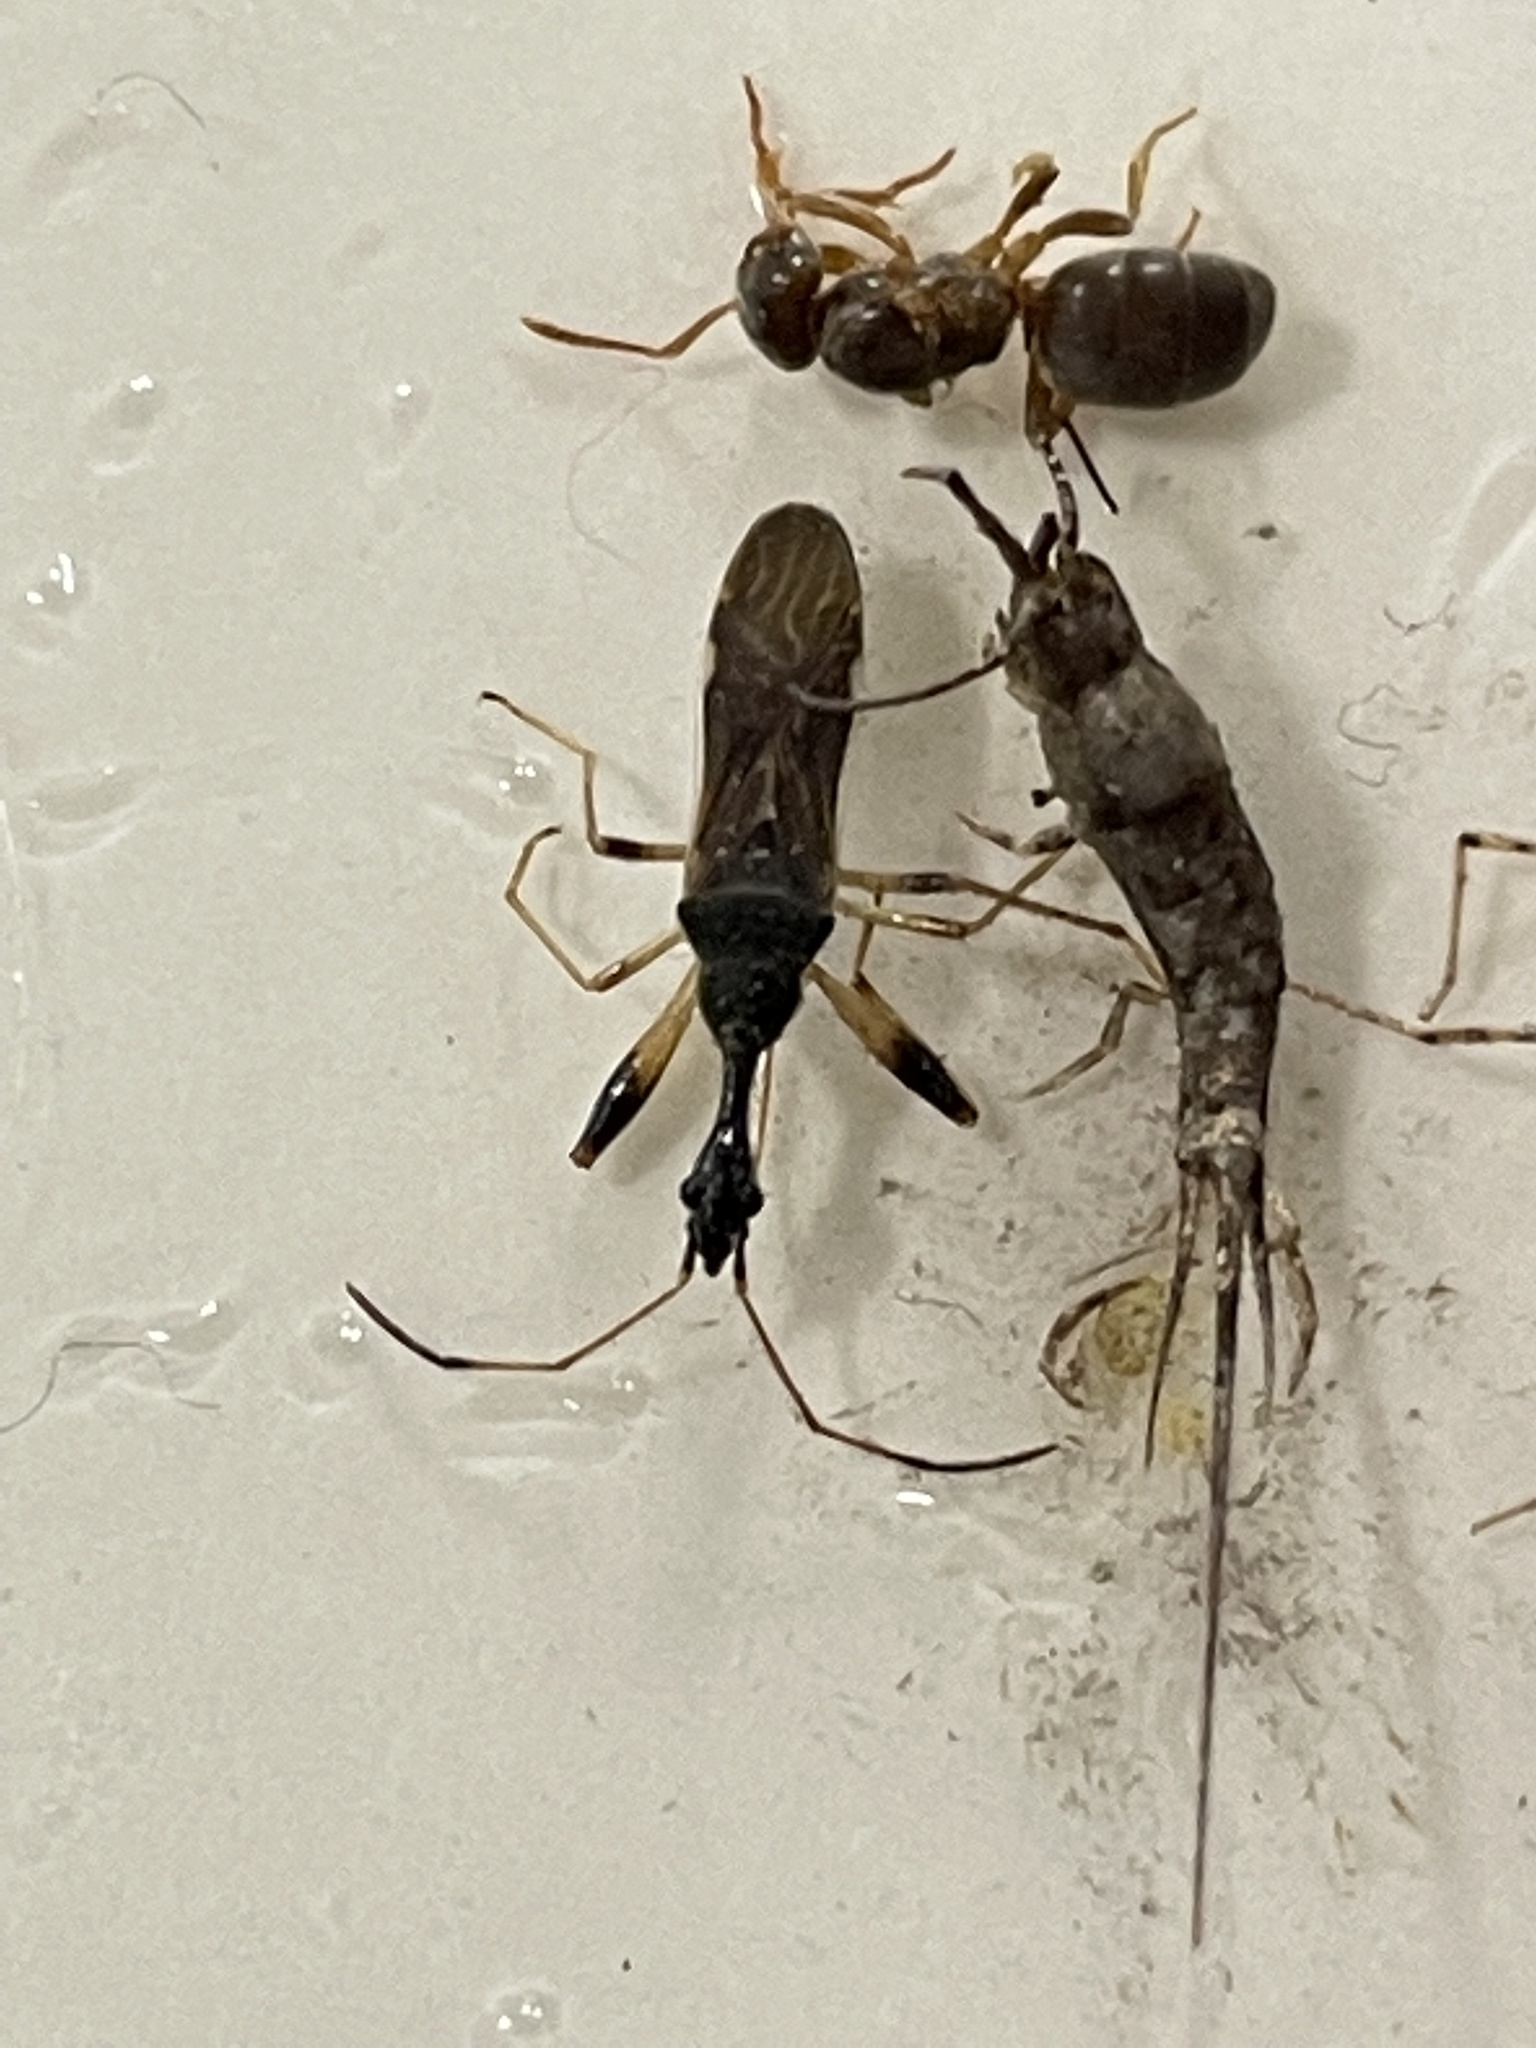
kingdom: Animalia
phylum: Arthropoda
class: Insecta
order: Hemiptera
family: Rhyparochromidae
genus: Myodocha
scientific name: Myodocha serripes
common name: Long-necked seed bug
